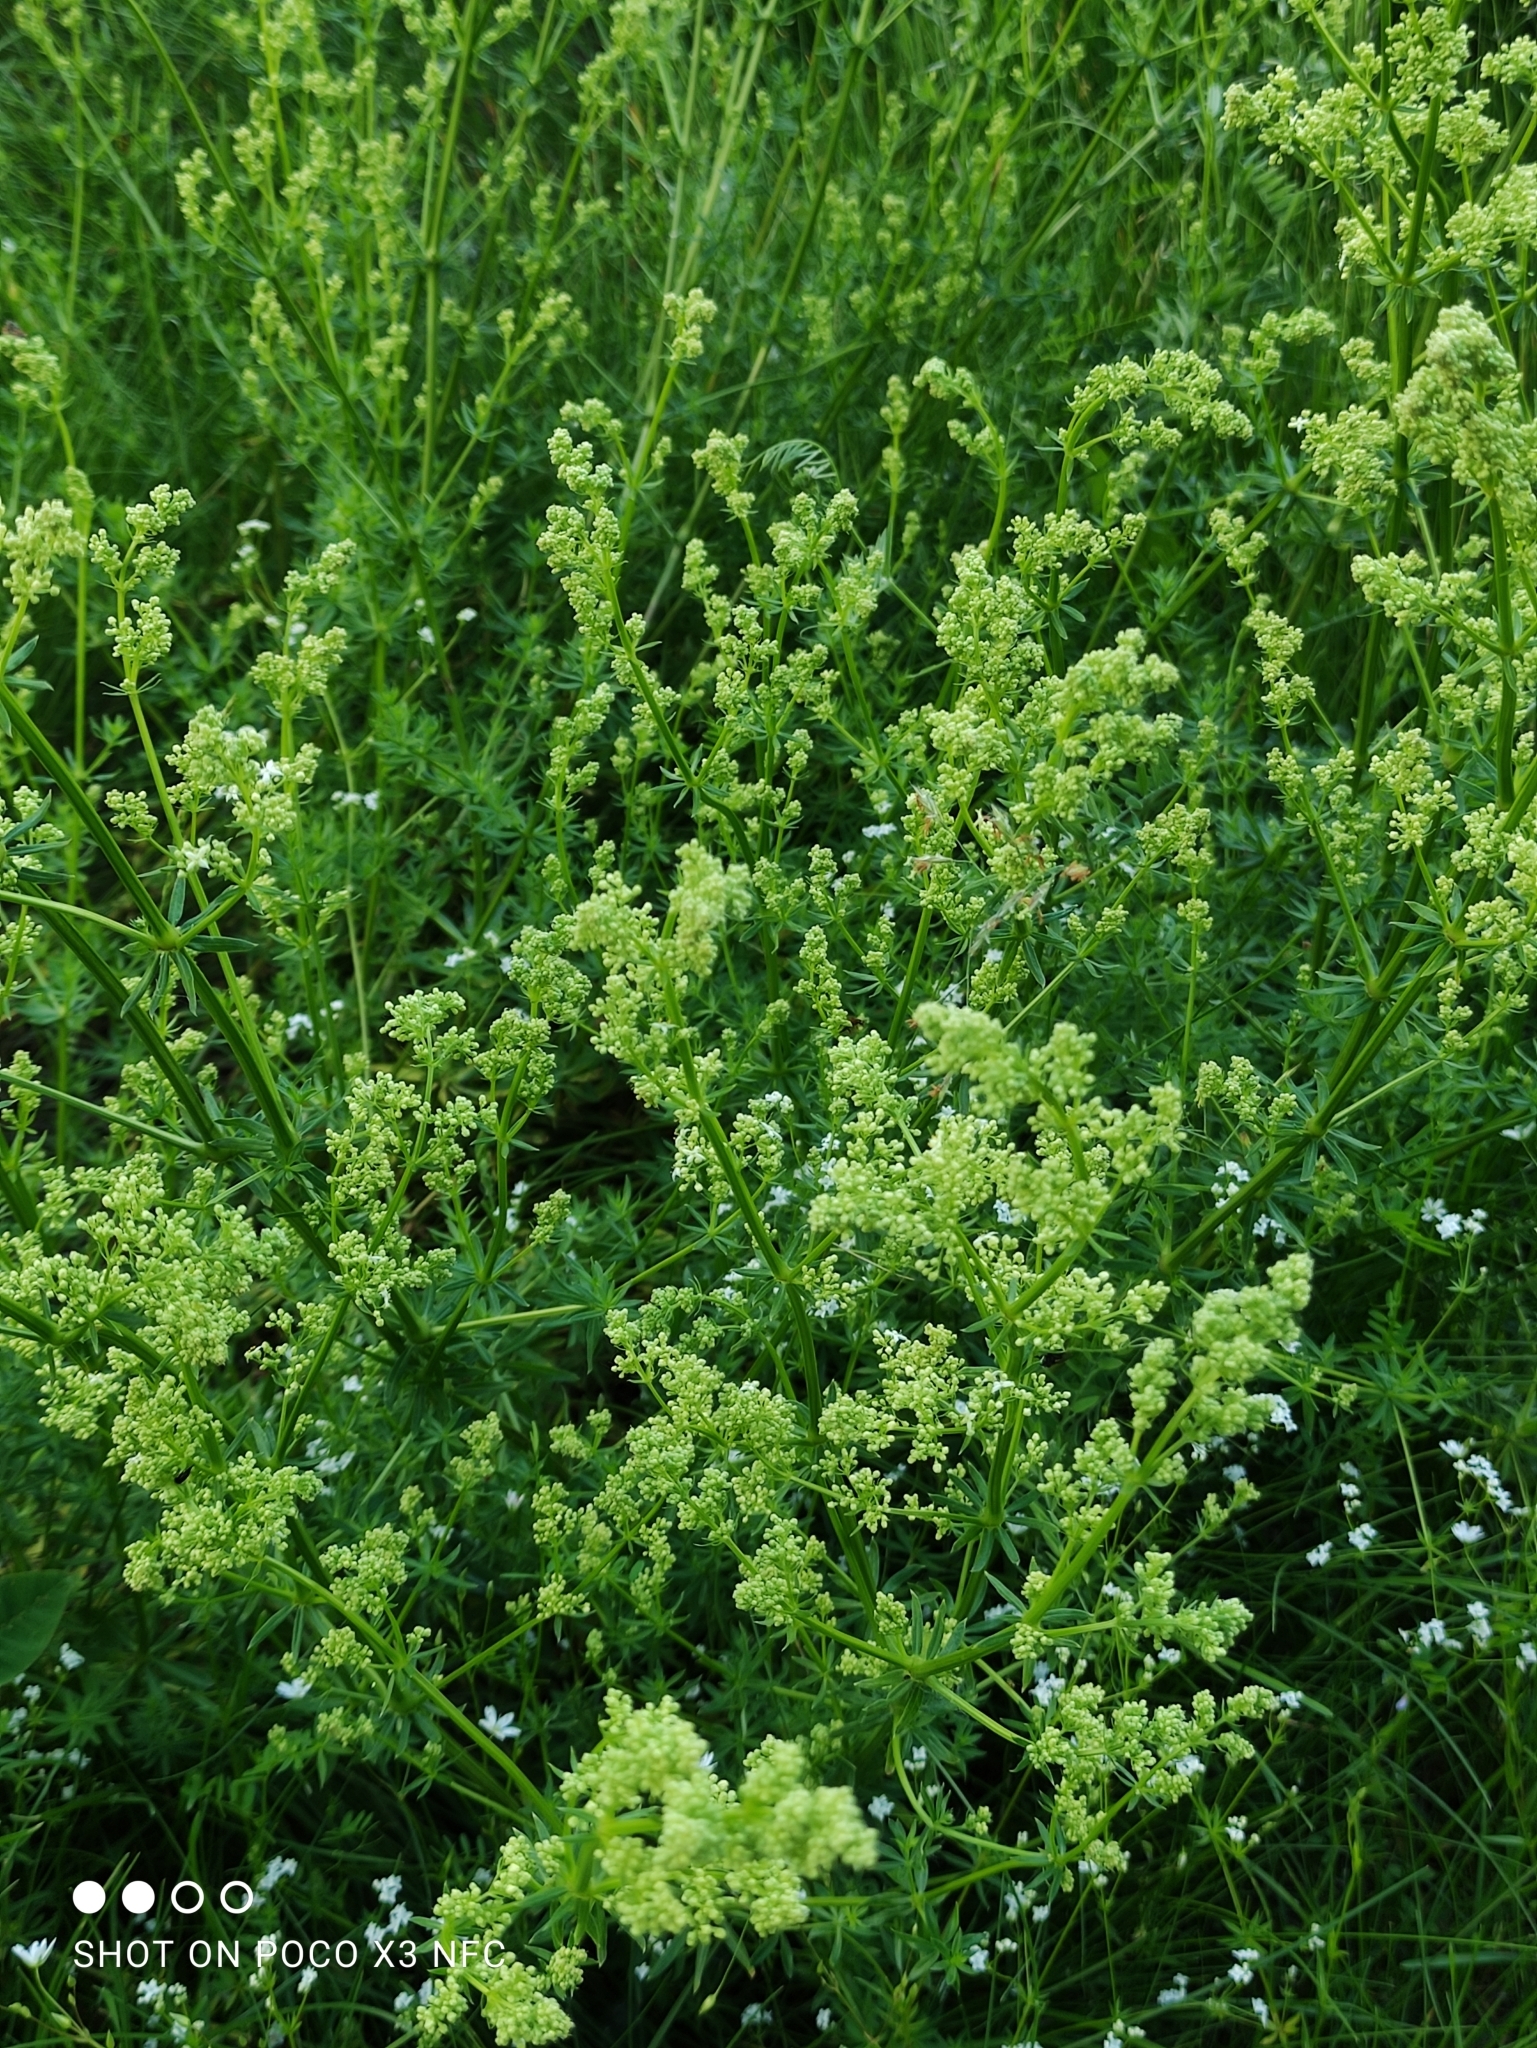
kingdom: Plantae
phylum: Tracheophyta
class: Magnoliopsida
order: Gentianales
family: Rubiaceae
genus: Galium
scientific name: Galium mollugo
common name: Hedge bedstraw
